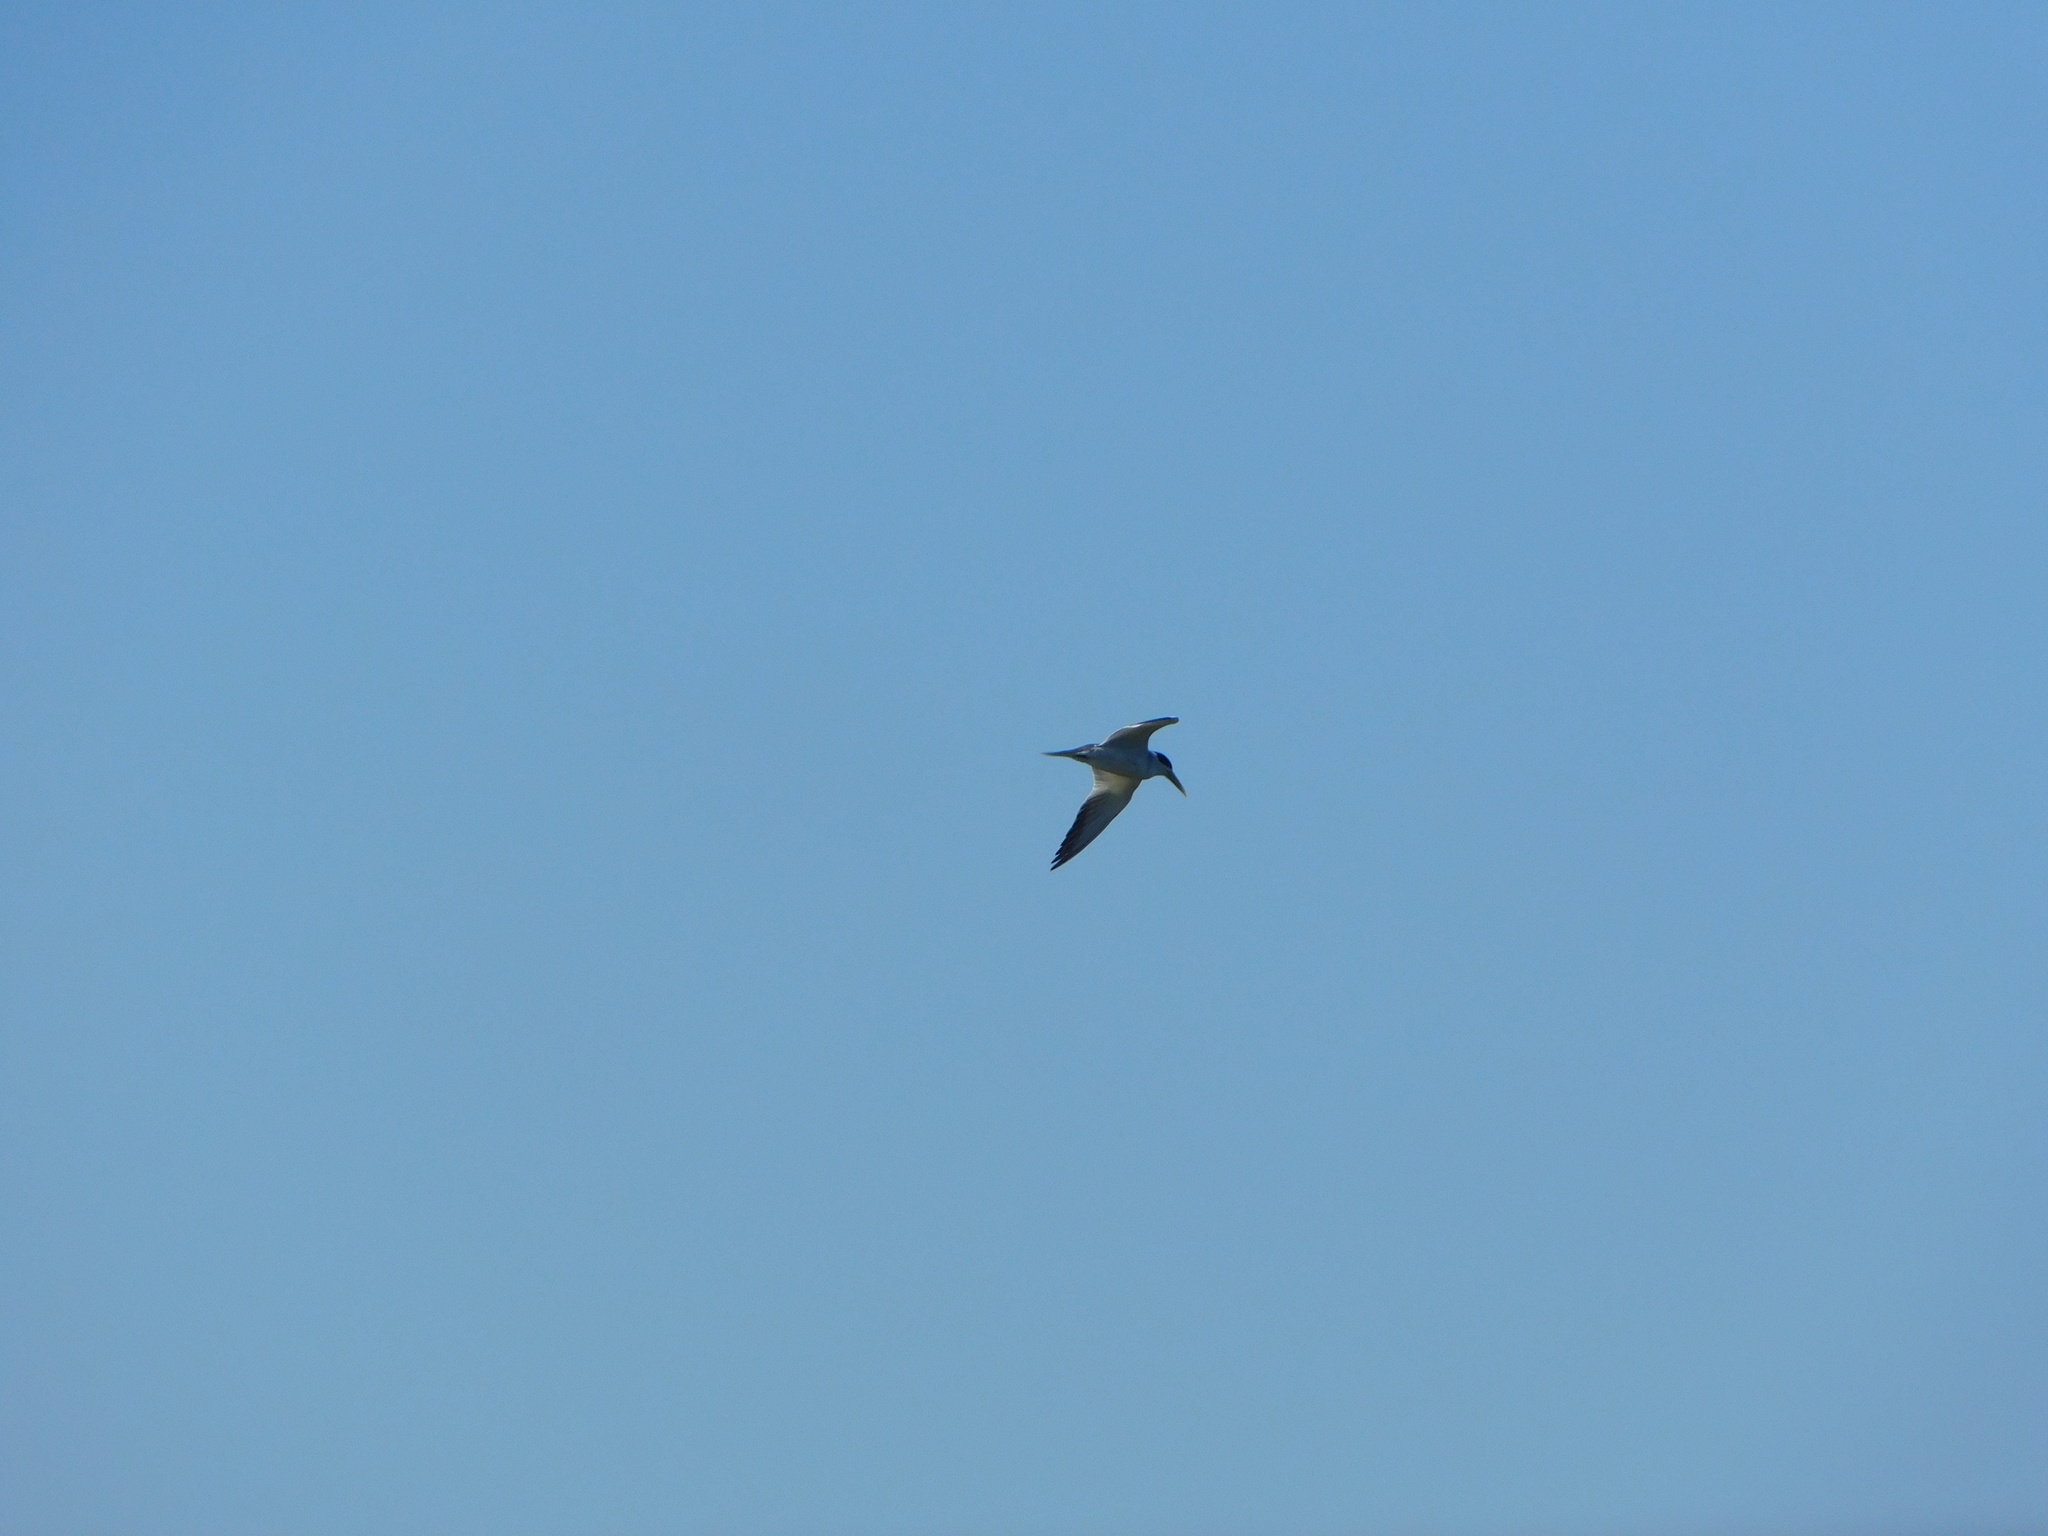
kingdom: Animalia
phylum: Chordata
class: Aves
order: Charadriiformes
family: Laridae
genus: Phaetusa
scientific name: Phaetusa simplex
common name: Large-billed tern
